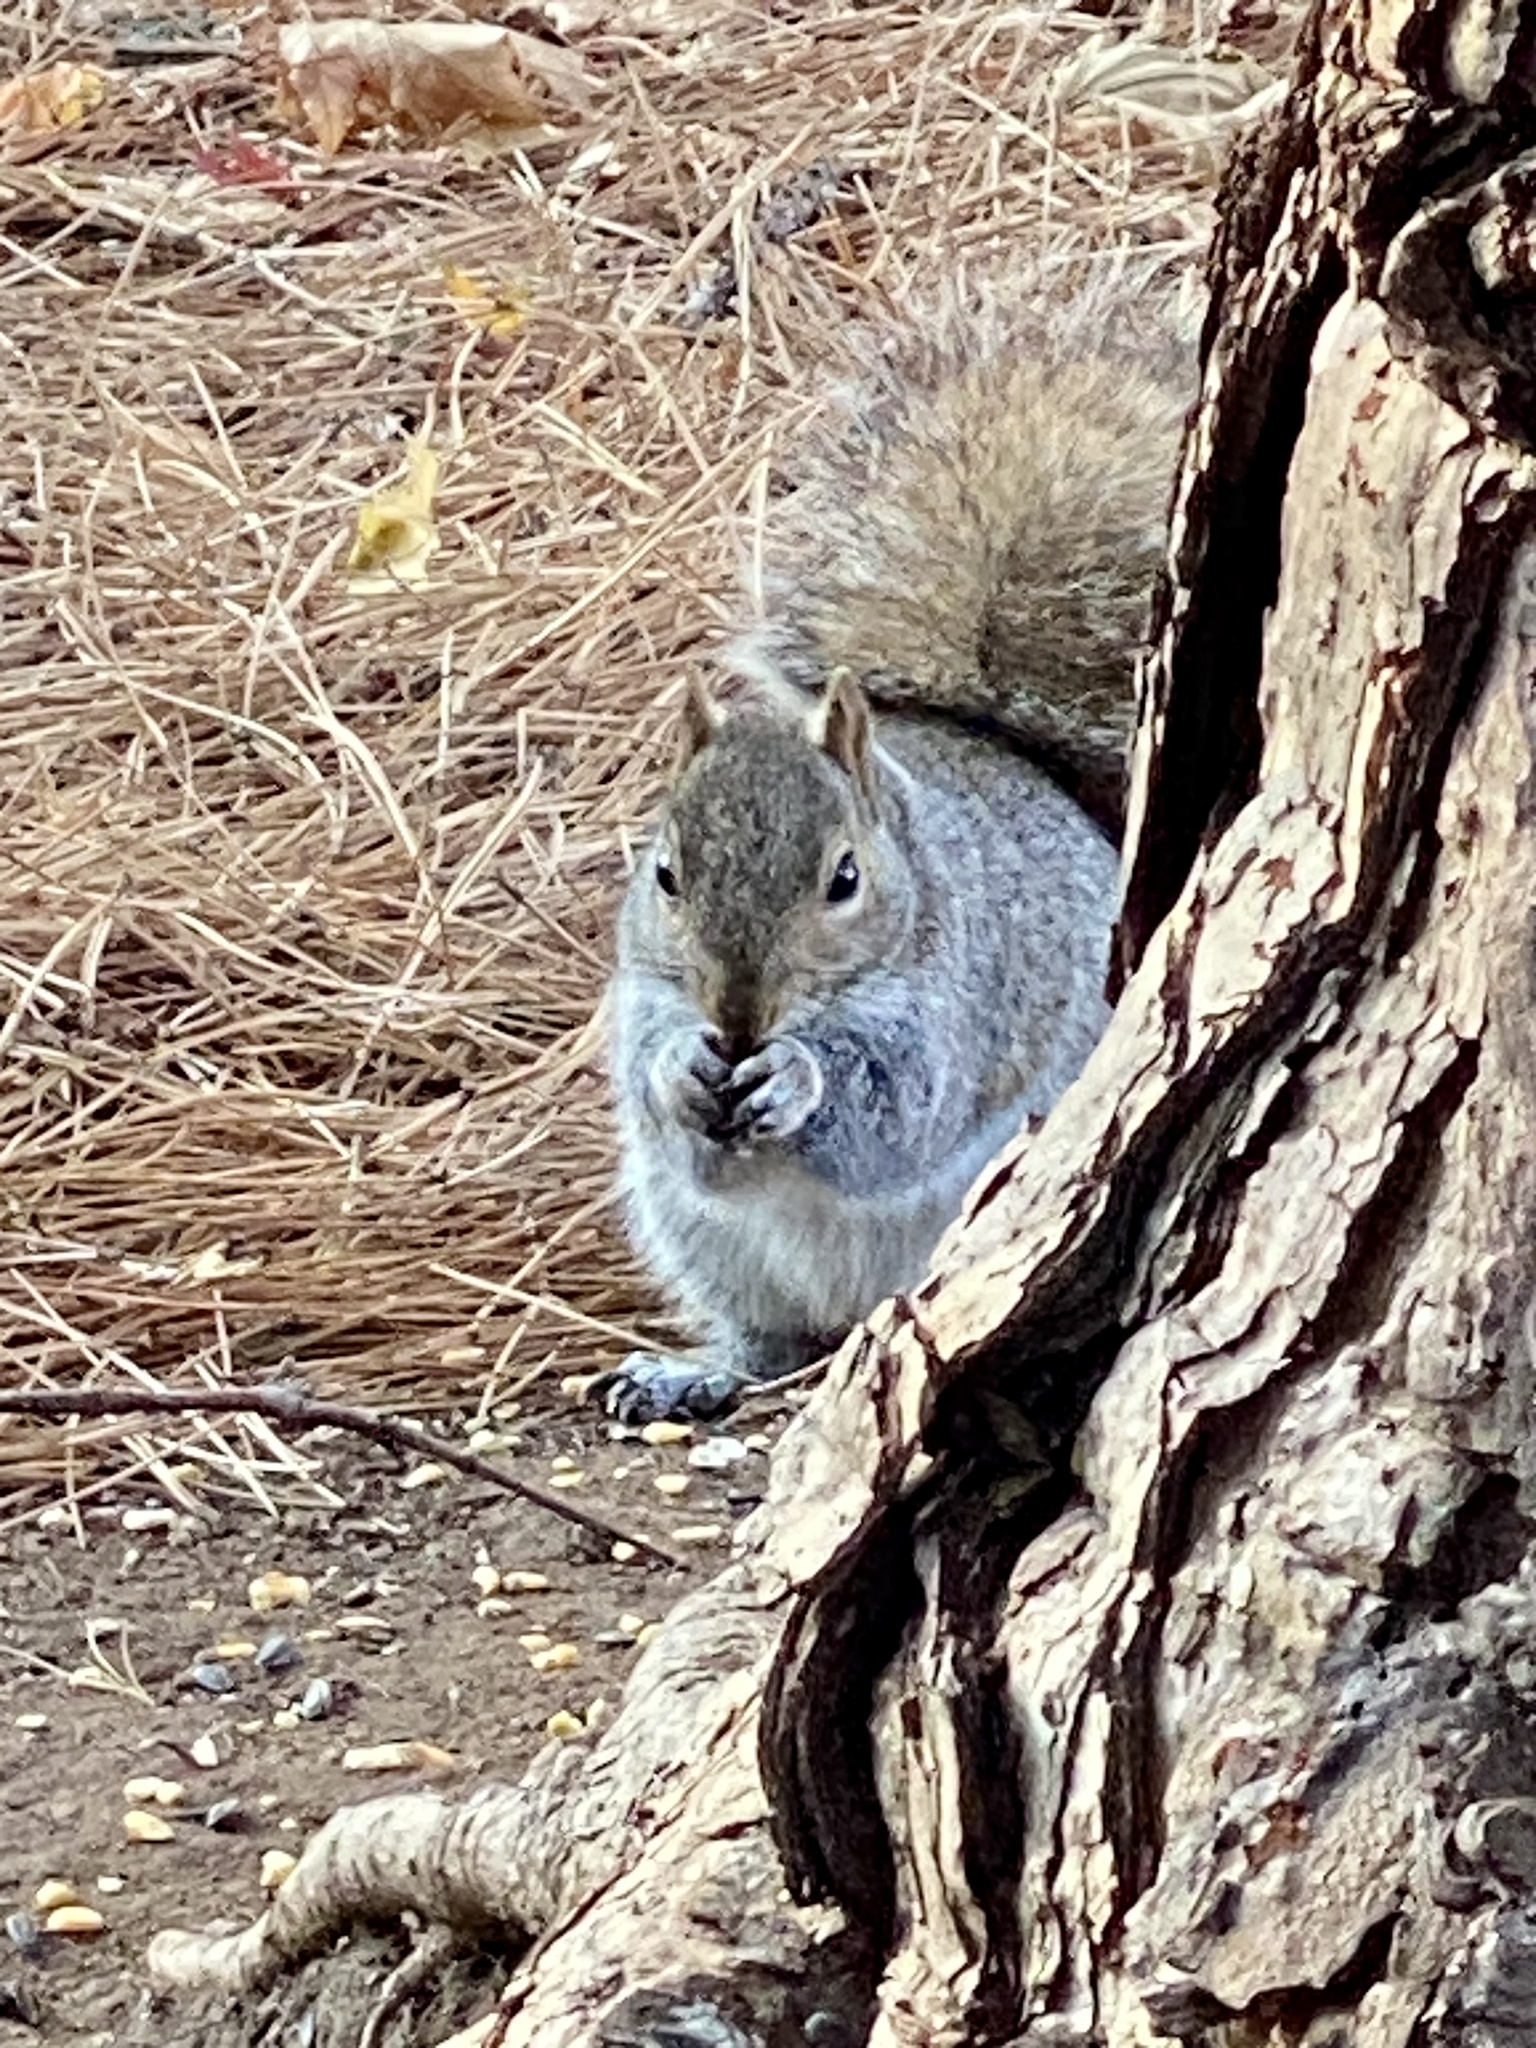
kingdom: Animalia
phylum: Chordata
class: Mammalia
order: Rodentia
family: Sciuridae
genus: Sciurus
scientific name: Sciurus carolinensis
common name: Eastern gray squirrel
